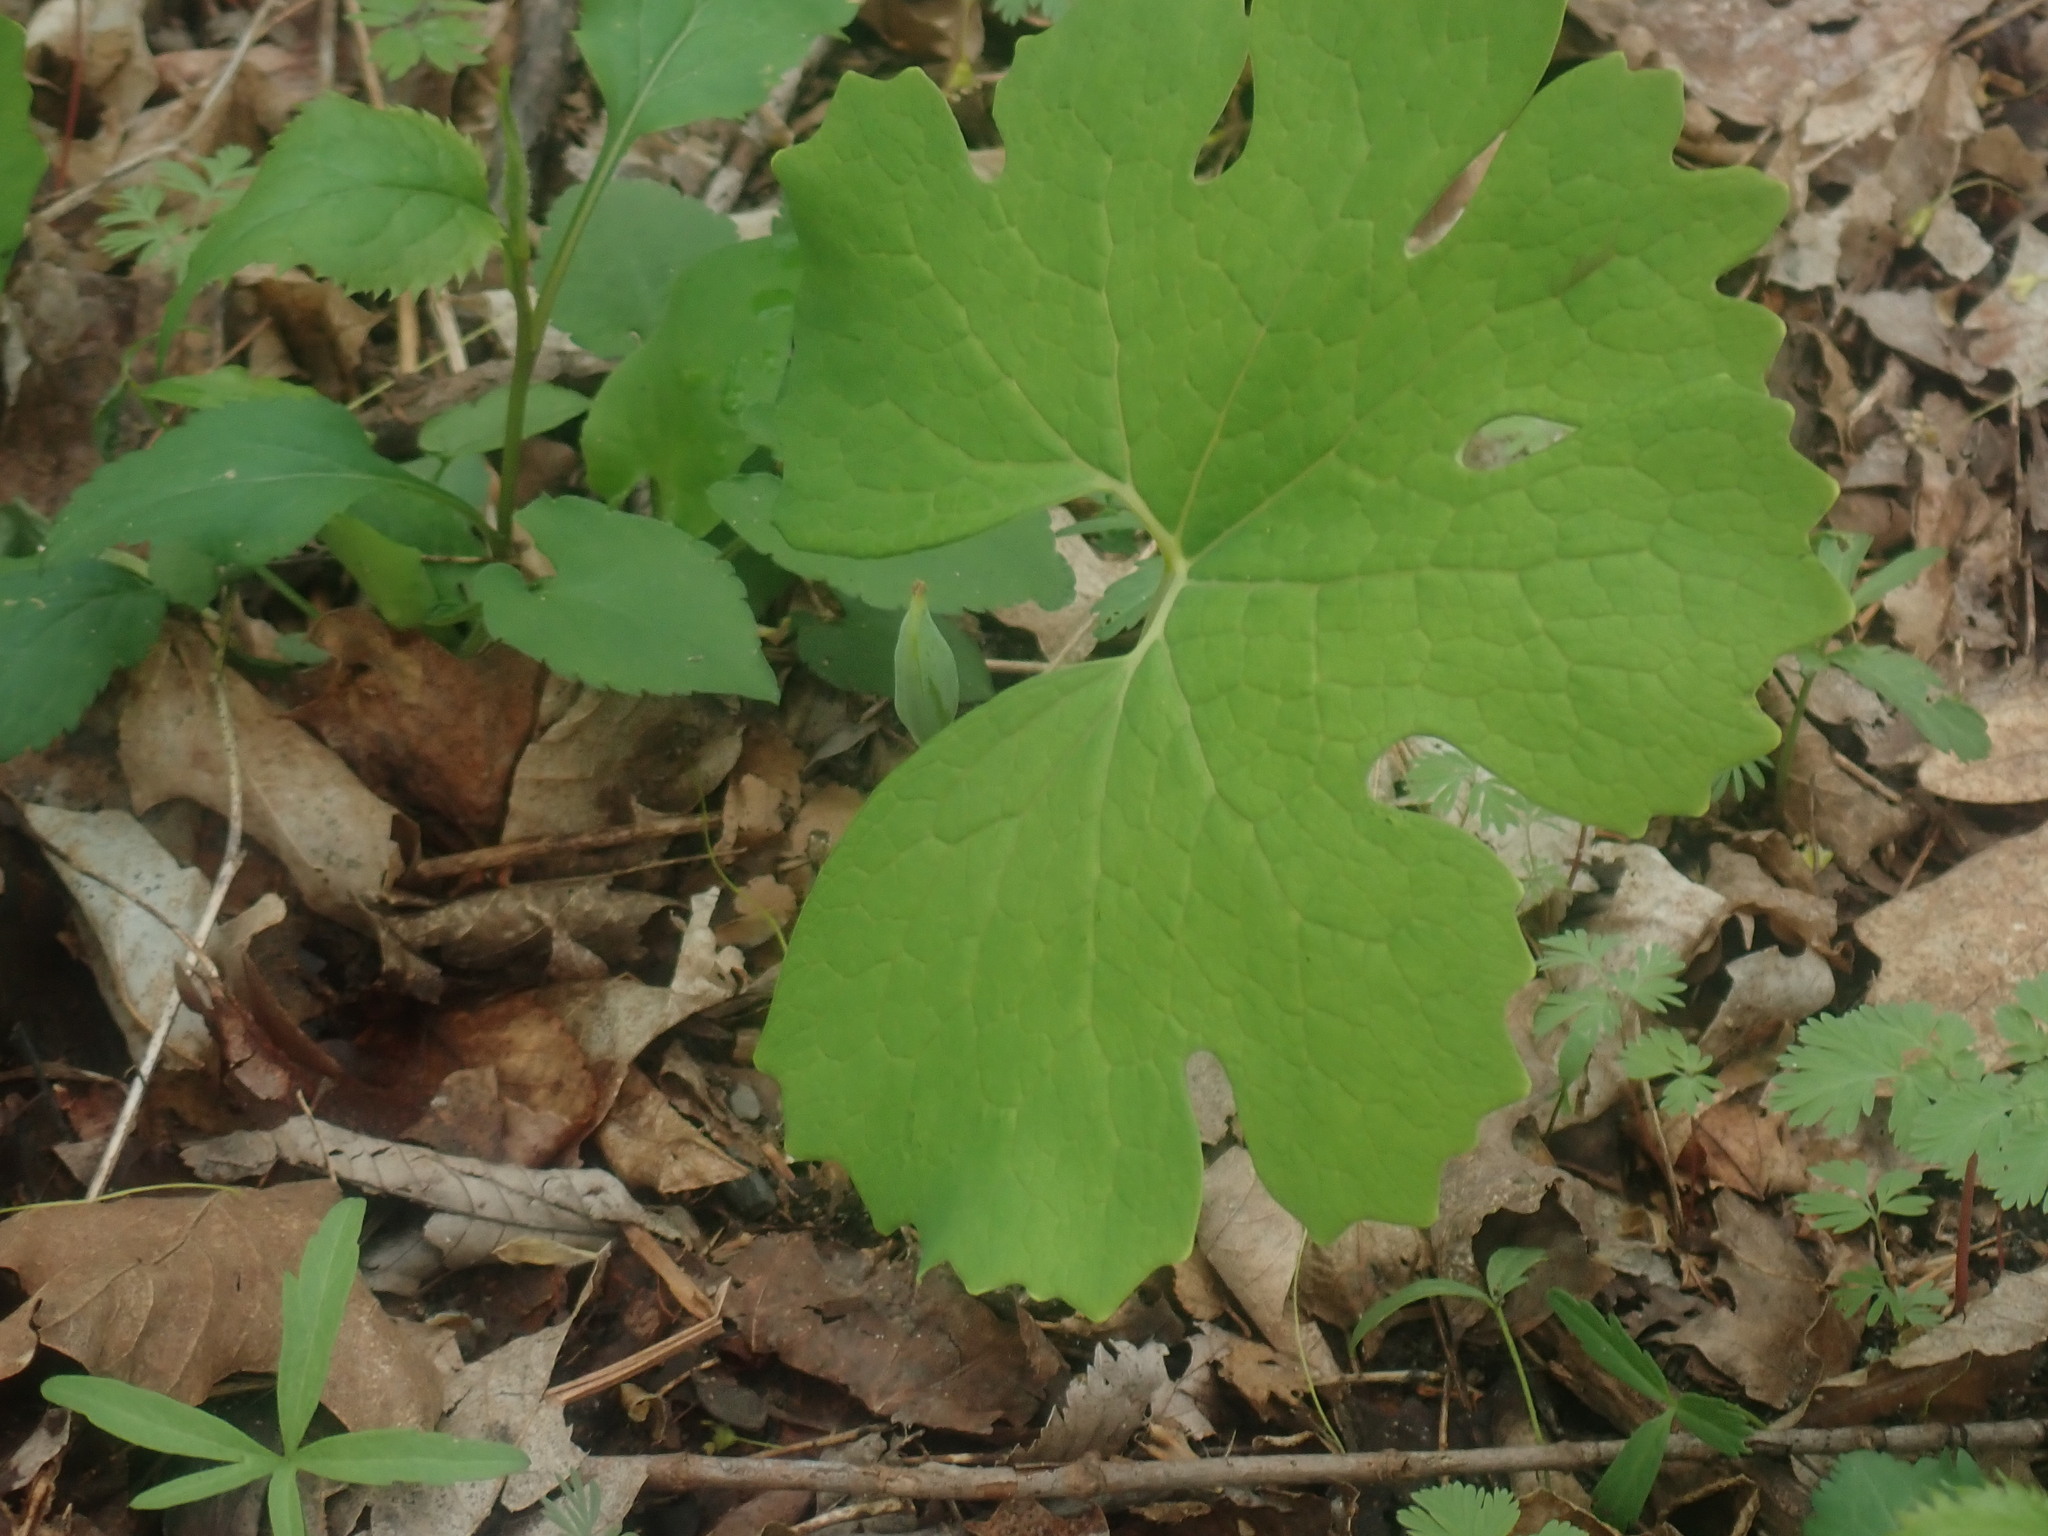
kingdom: Plantae
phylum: Tracheophyta
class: Magnoliopsida
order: Ranunculales
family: Papaveraceae
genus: Sanguinaria
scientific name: Sanguinaria canadensis
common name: Bloodroot
